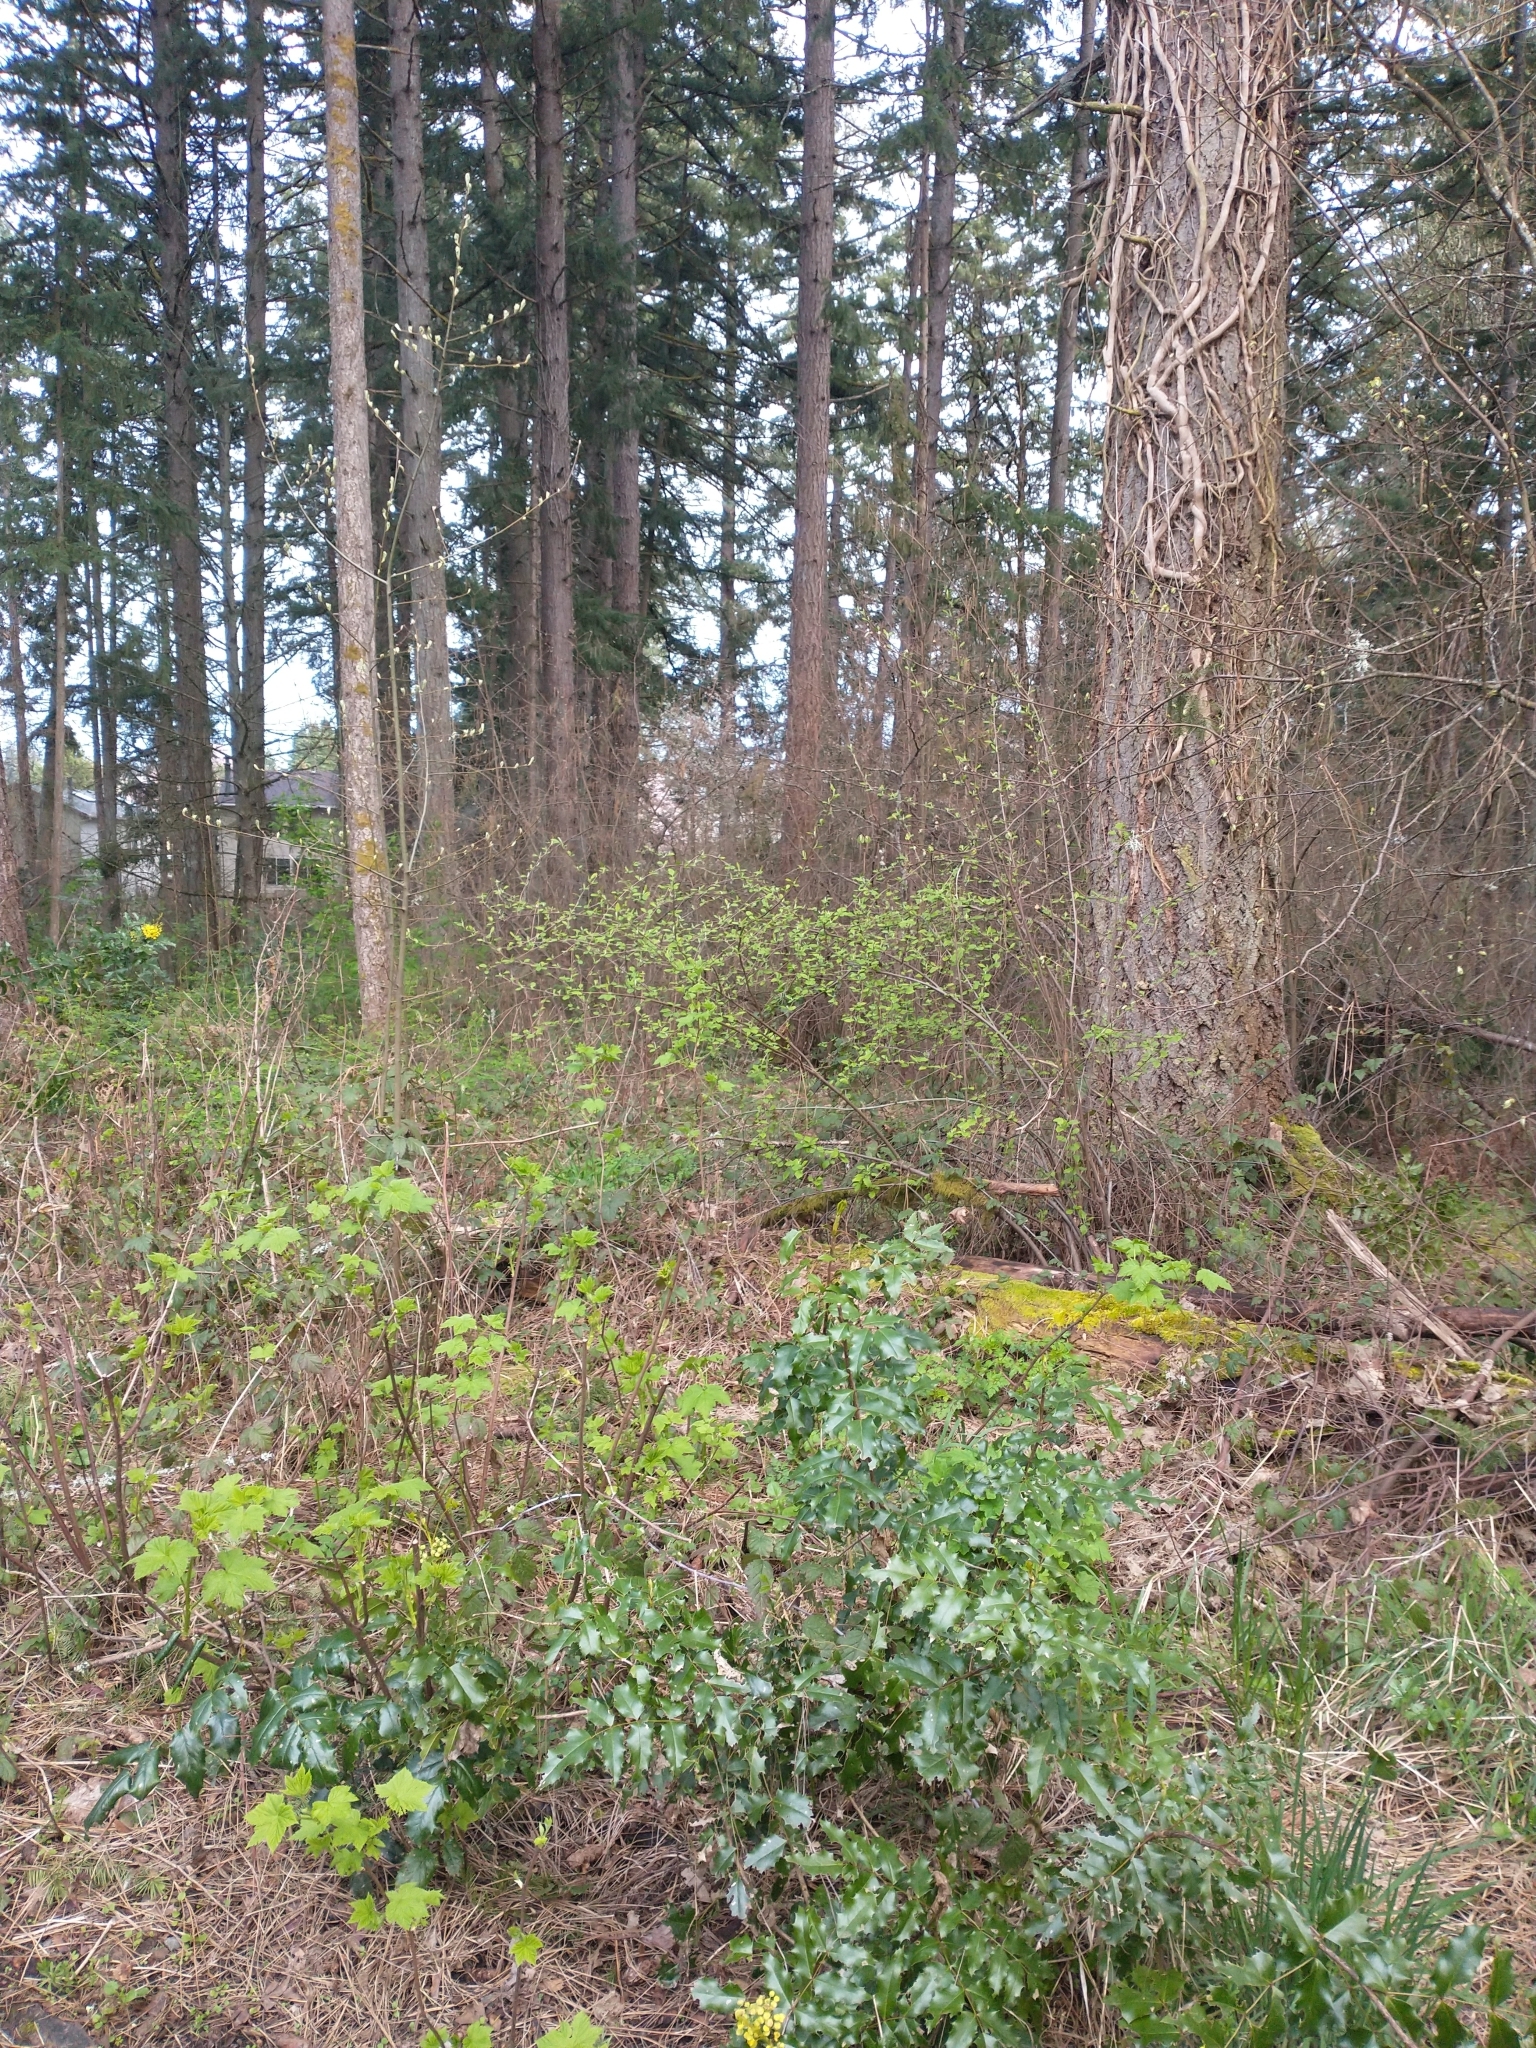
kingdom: Plantae
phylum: Tracheophyta
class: Magnoliopsida
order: Ranunculales
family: Berberidaceae
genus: Mahonia
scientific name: Mahonia aquifolium
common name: Oregon-grape
